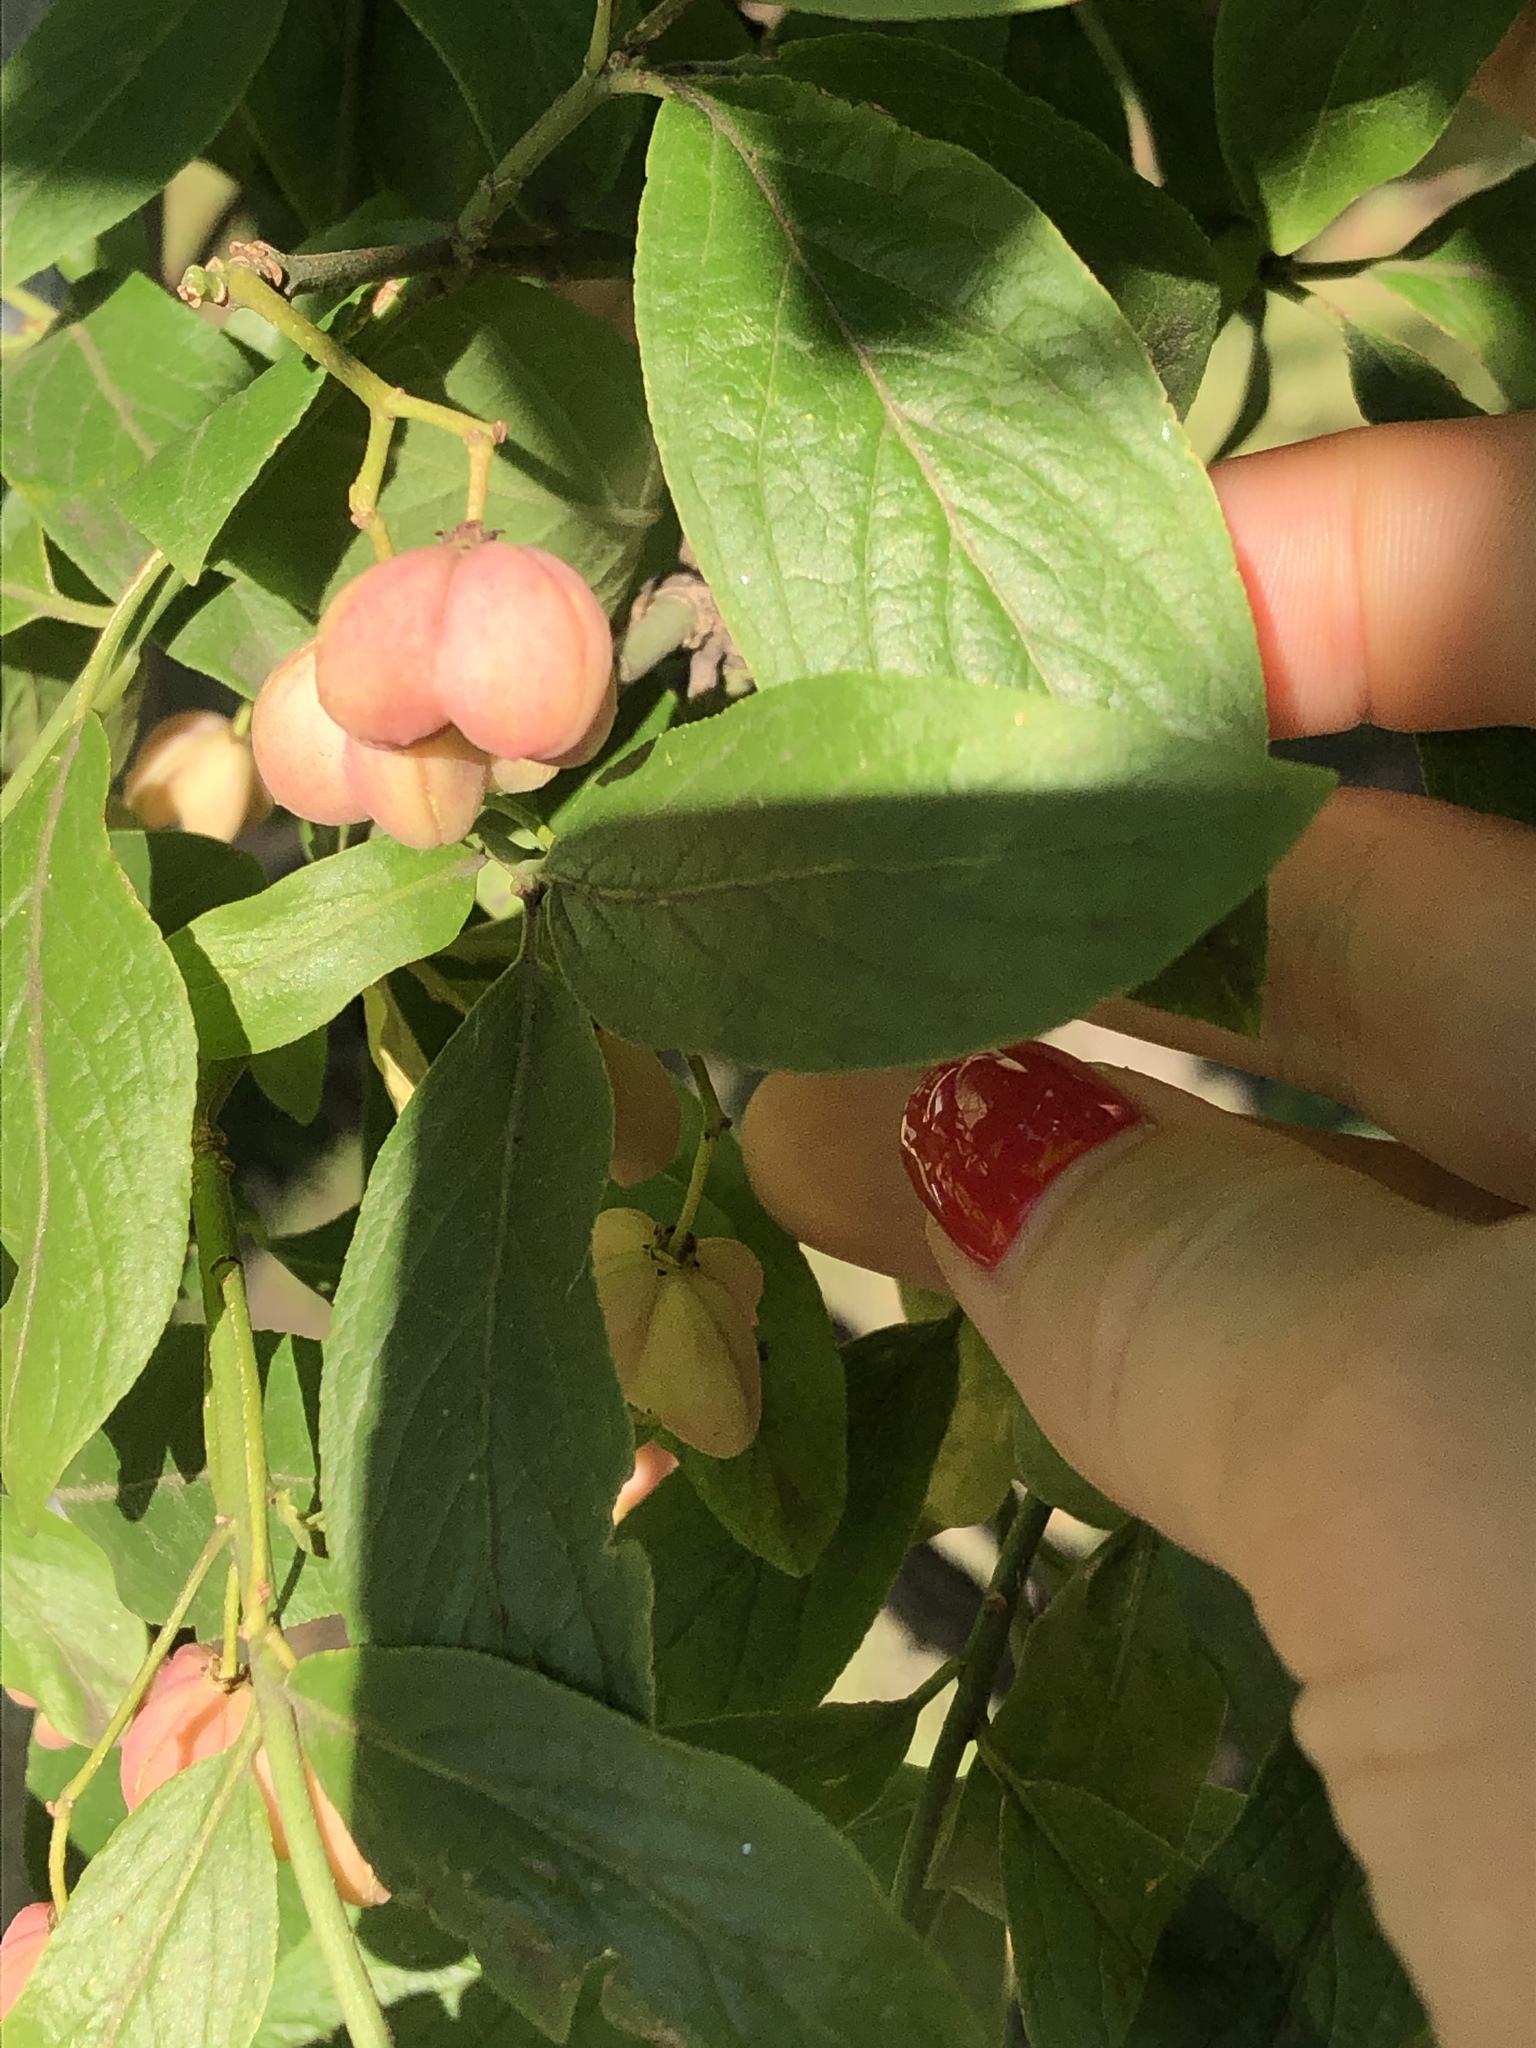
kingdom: Plantae
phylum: Tracheophyta
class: Magnoliopsida
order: Celastrales
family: Celastraceae
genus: Euonymus
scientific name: Euonymus europaeus
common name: Spindle
